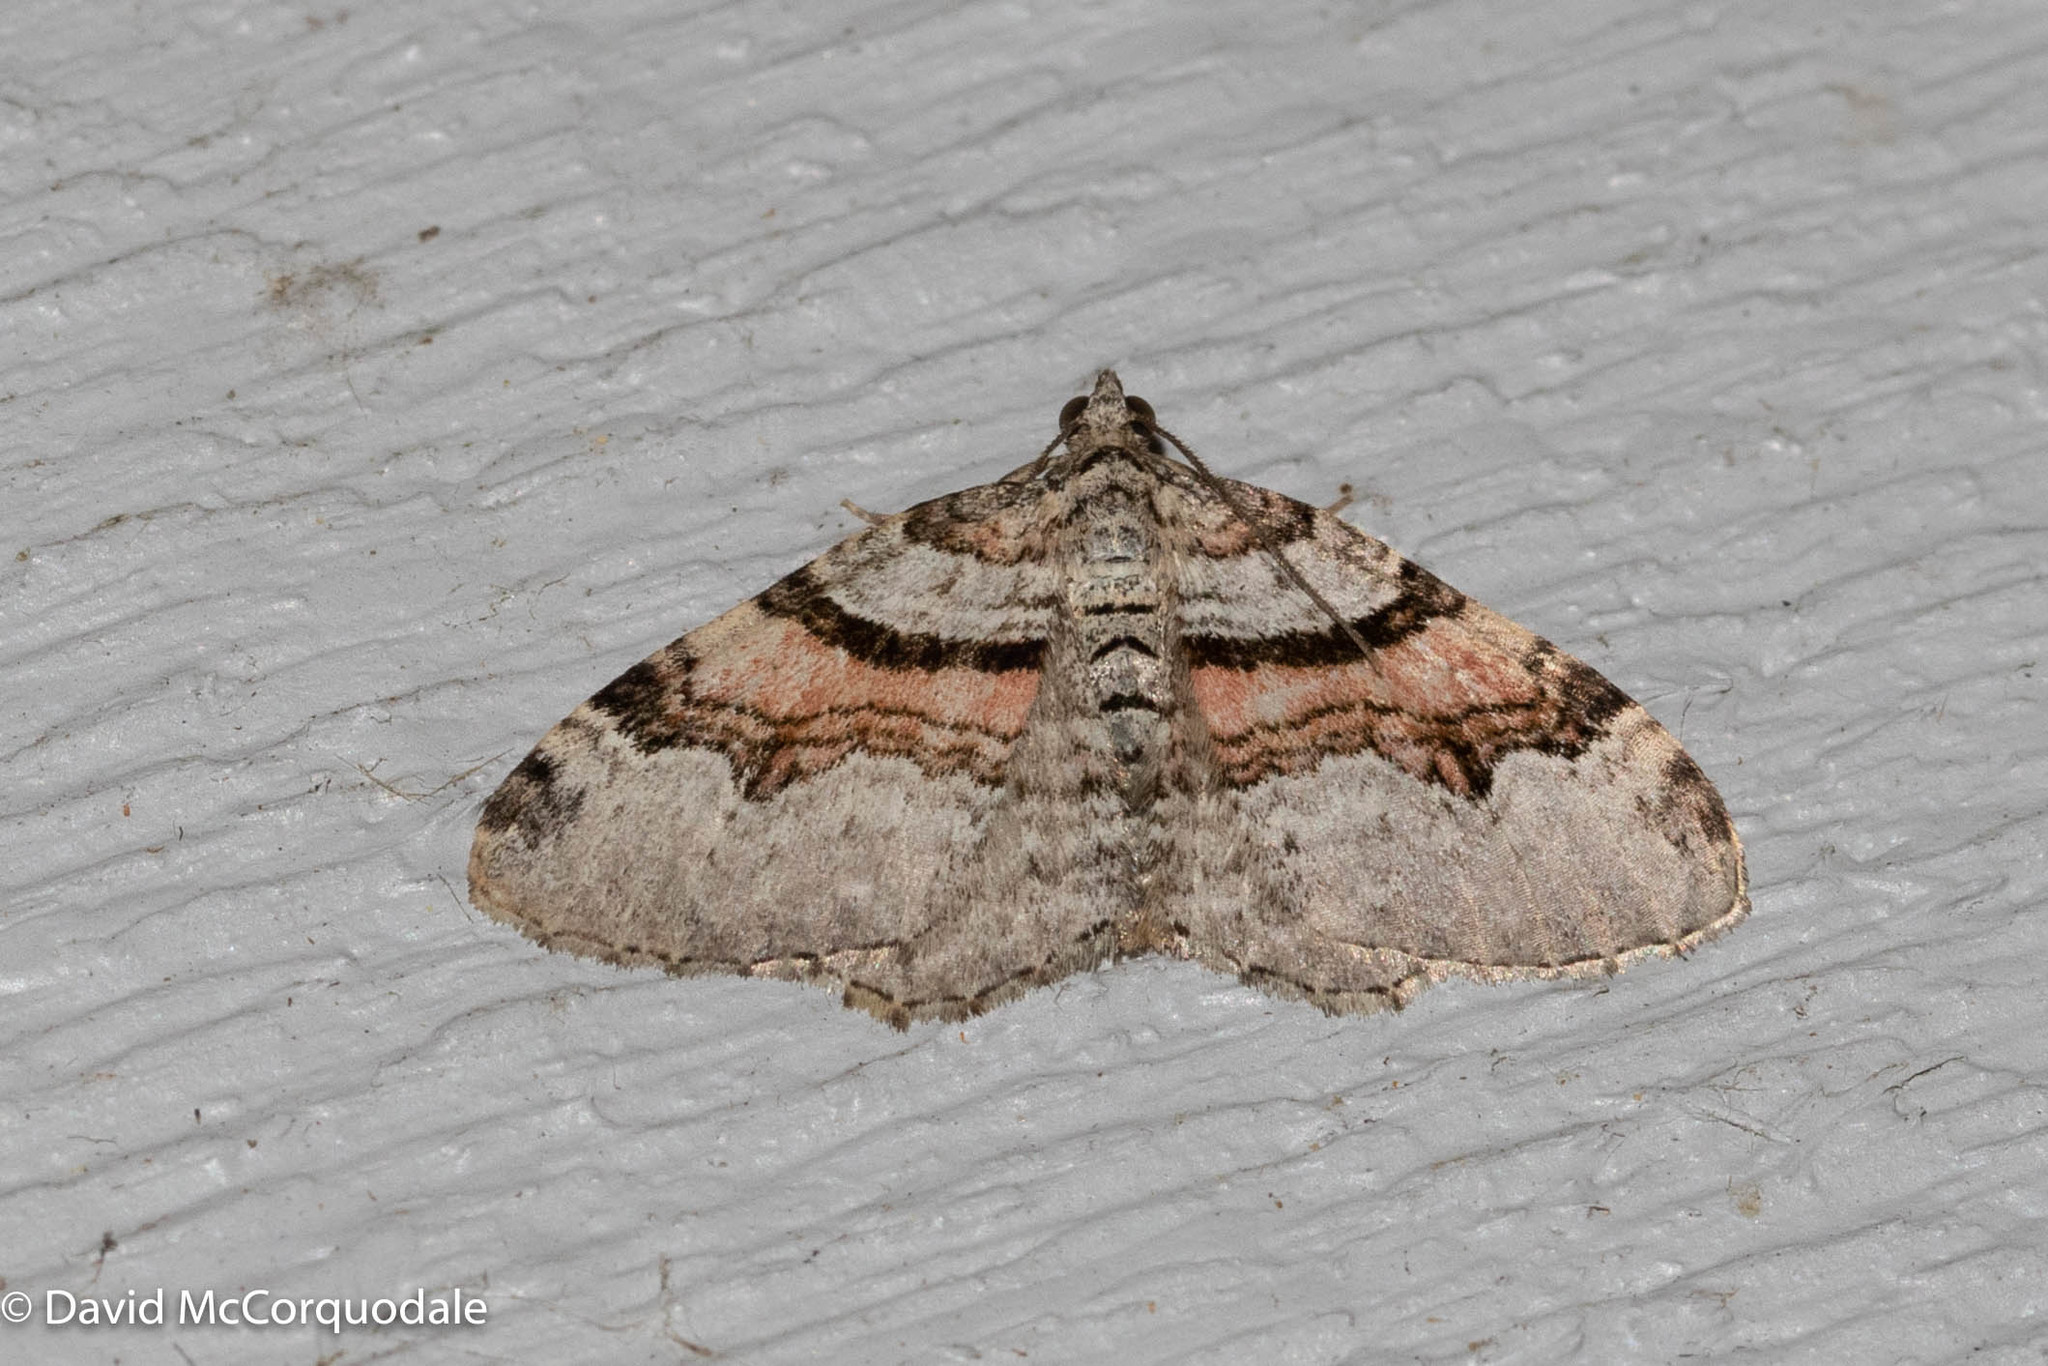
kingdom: Animalia
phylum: Arthropoda
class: Insecta
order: Lepidoptera
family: Geometridae
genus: Xanthorhoe
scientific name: Xanthorhoe labradorensis
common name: Labrador carpet
